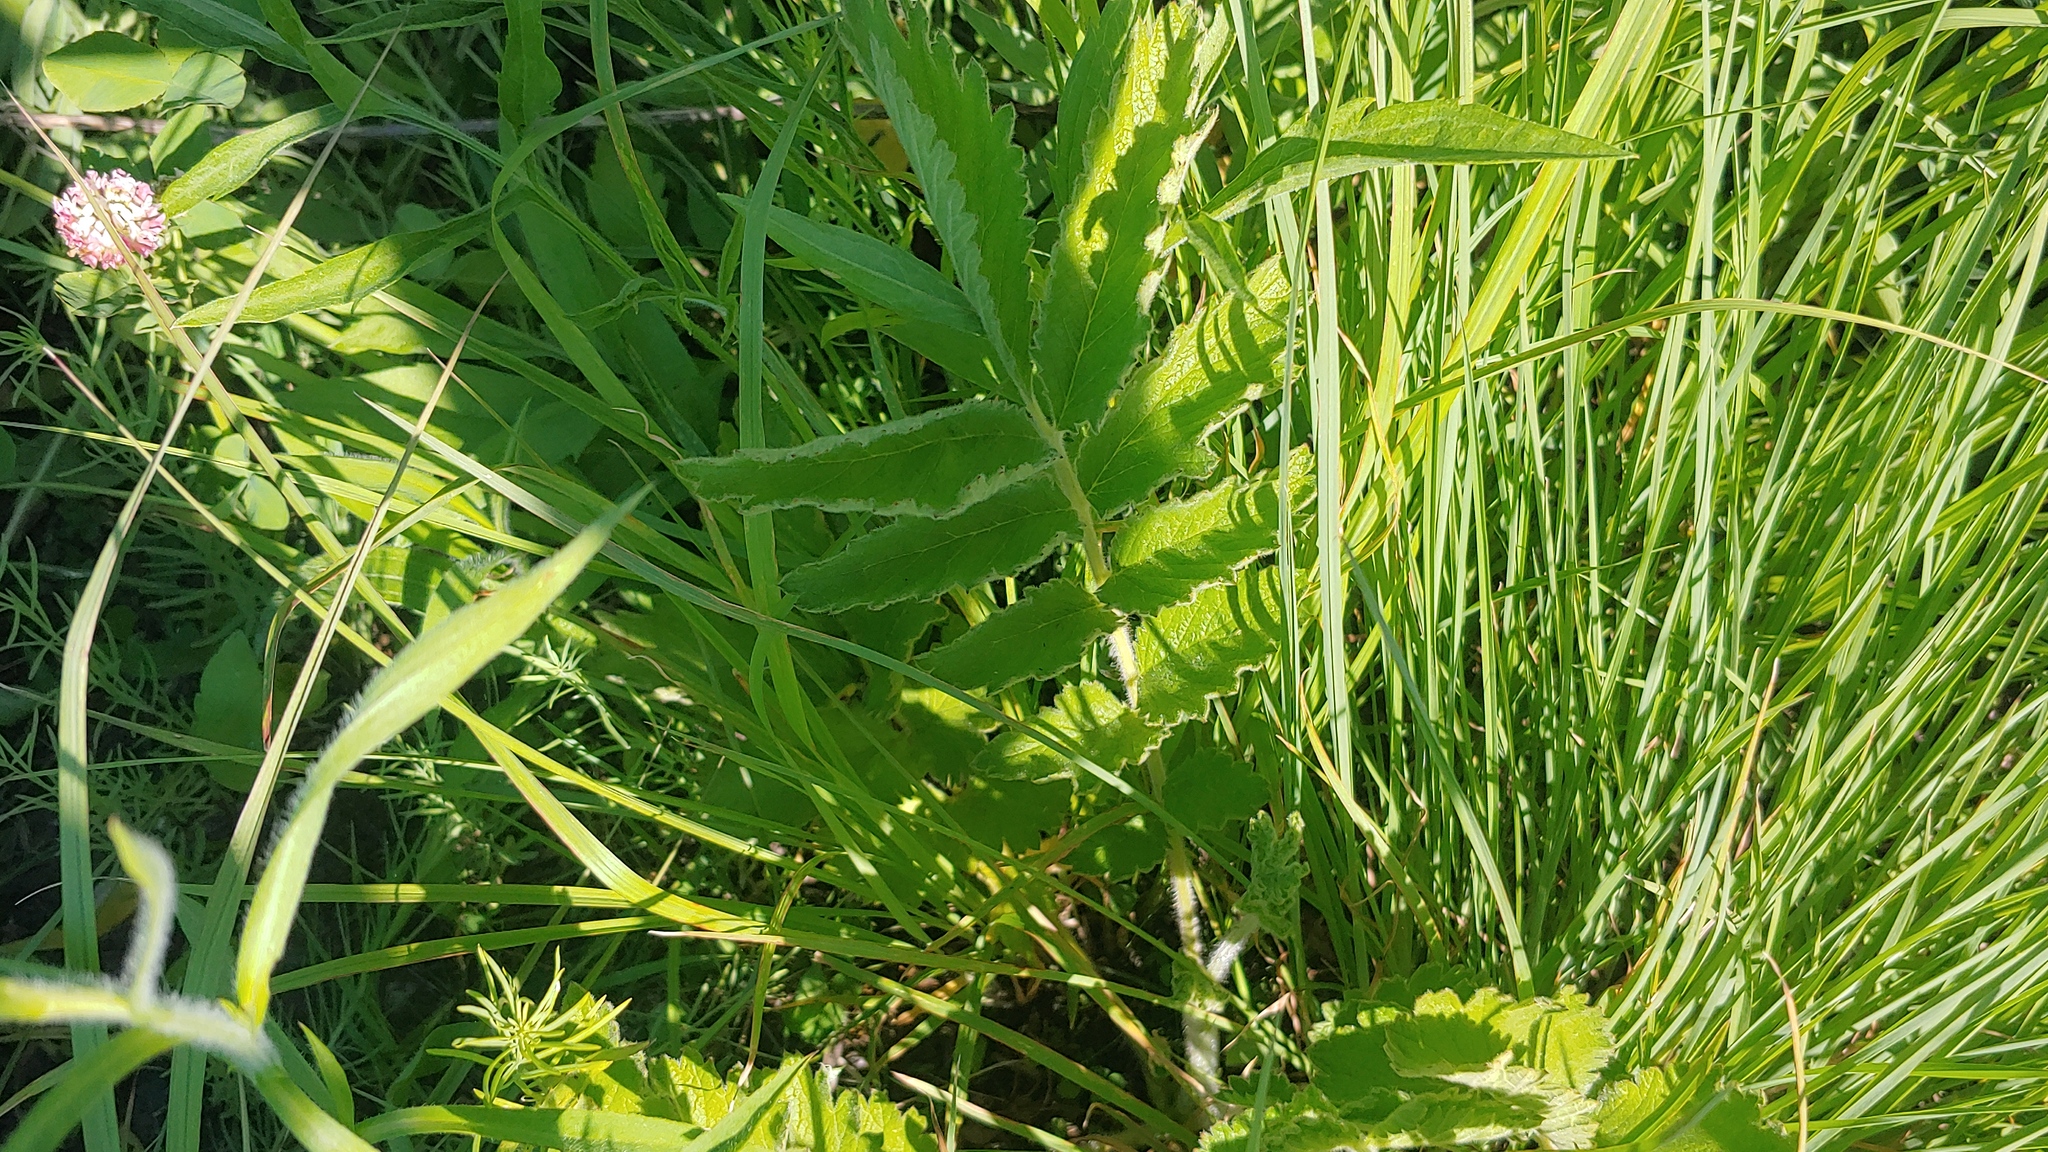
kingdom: Plantae
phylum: Tracheophyta
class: Magnoliopsida
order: Rosales
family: Rosaceae
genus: Drymocallis
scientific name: Drymocallis arguta
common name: Tall cinquefoil
